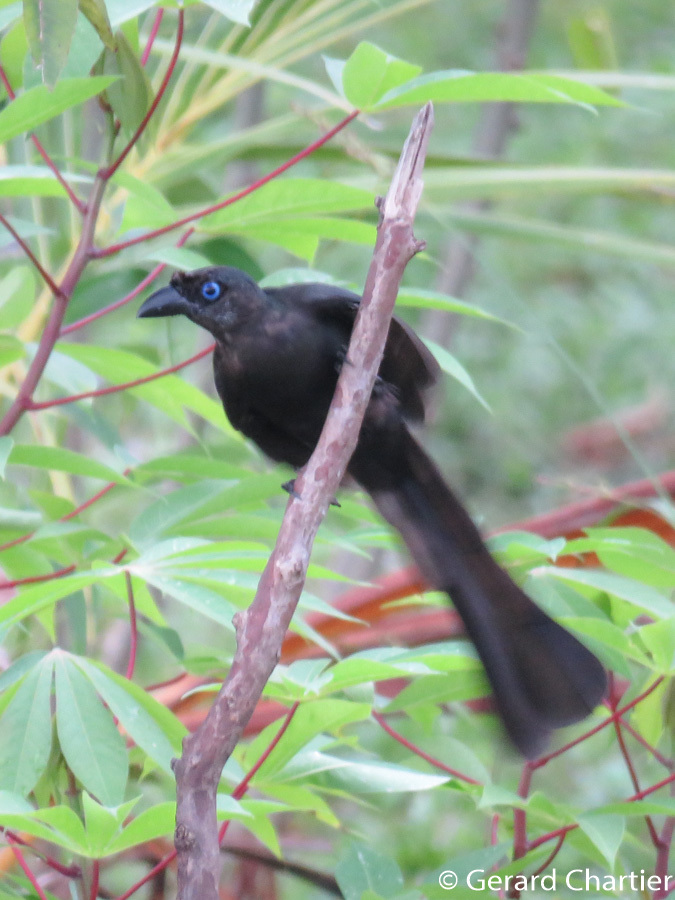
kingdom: Animalia
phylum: Chordata
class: Aves
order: Passeriformes
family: Corvidae
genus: Crypsirina
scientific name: Crypsirina temia
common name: Racket-tailed treepie
